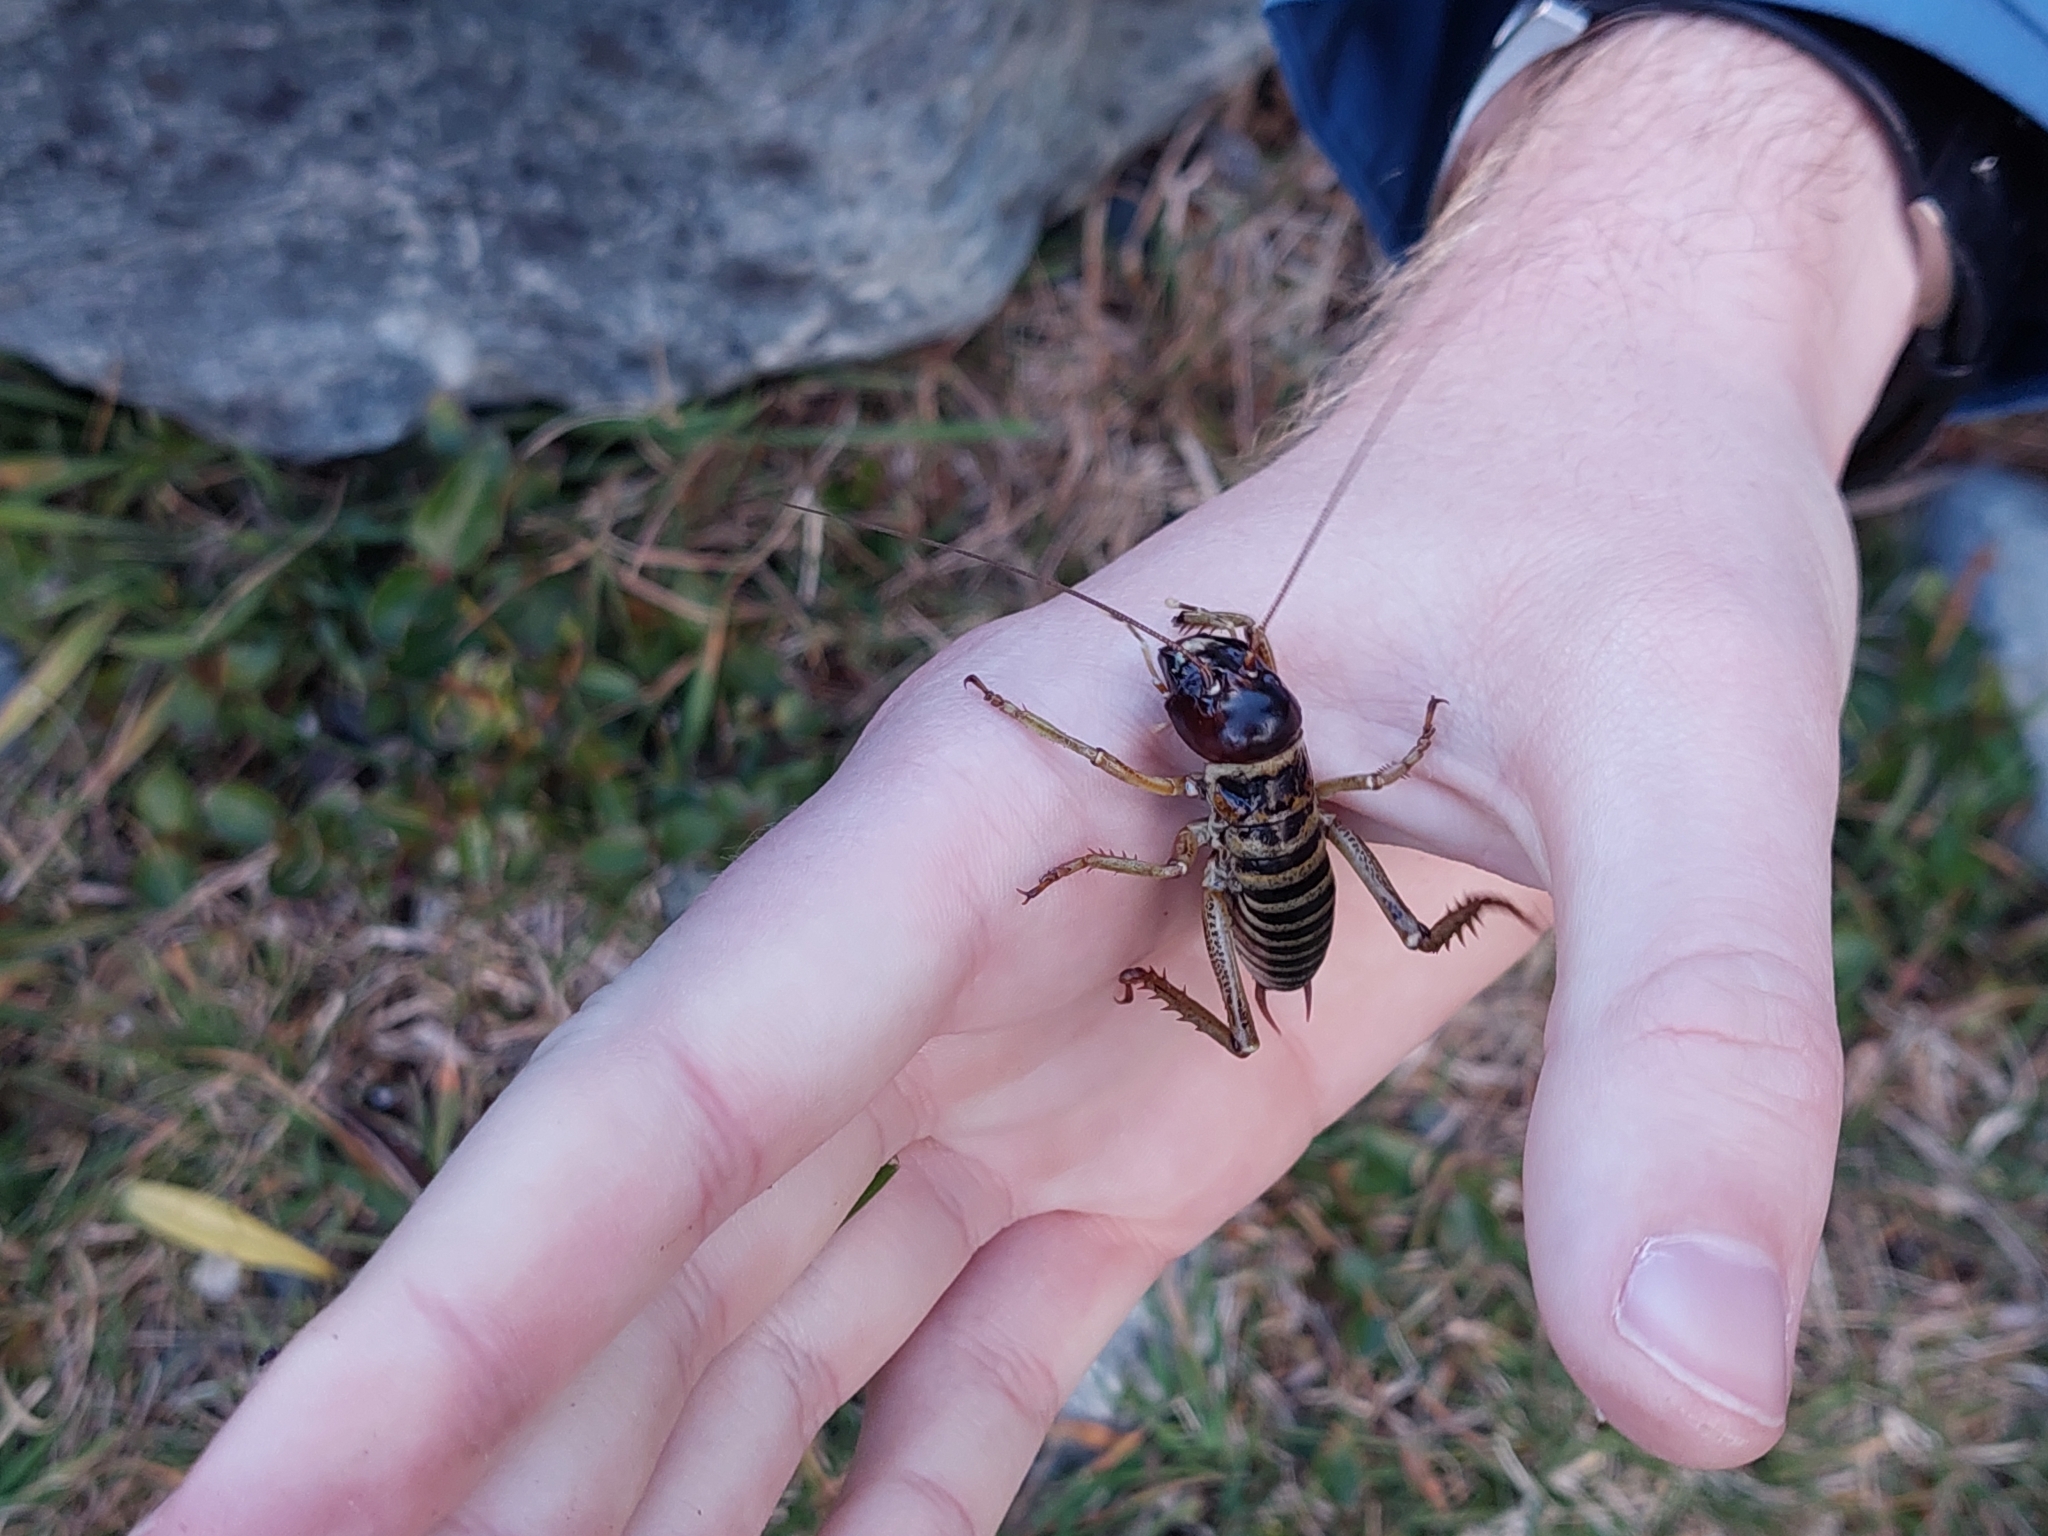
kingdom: Animalia
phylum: Arthropoda
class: Insecta
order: Orthoptera
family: Anostostomatidae
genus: Hemideina
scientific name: Hemideina maori
